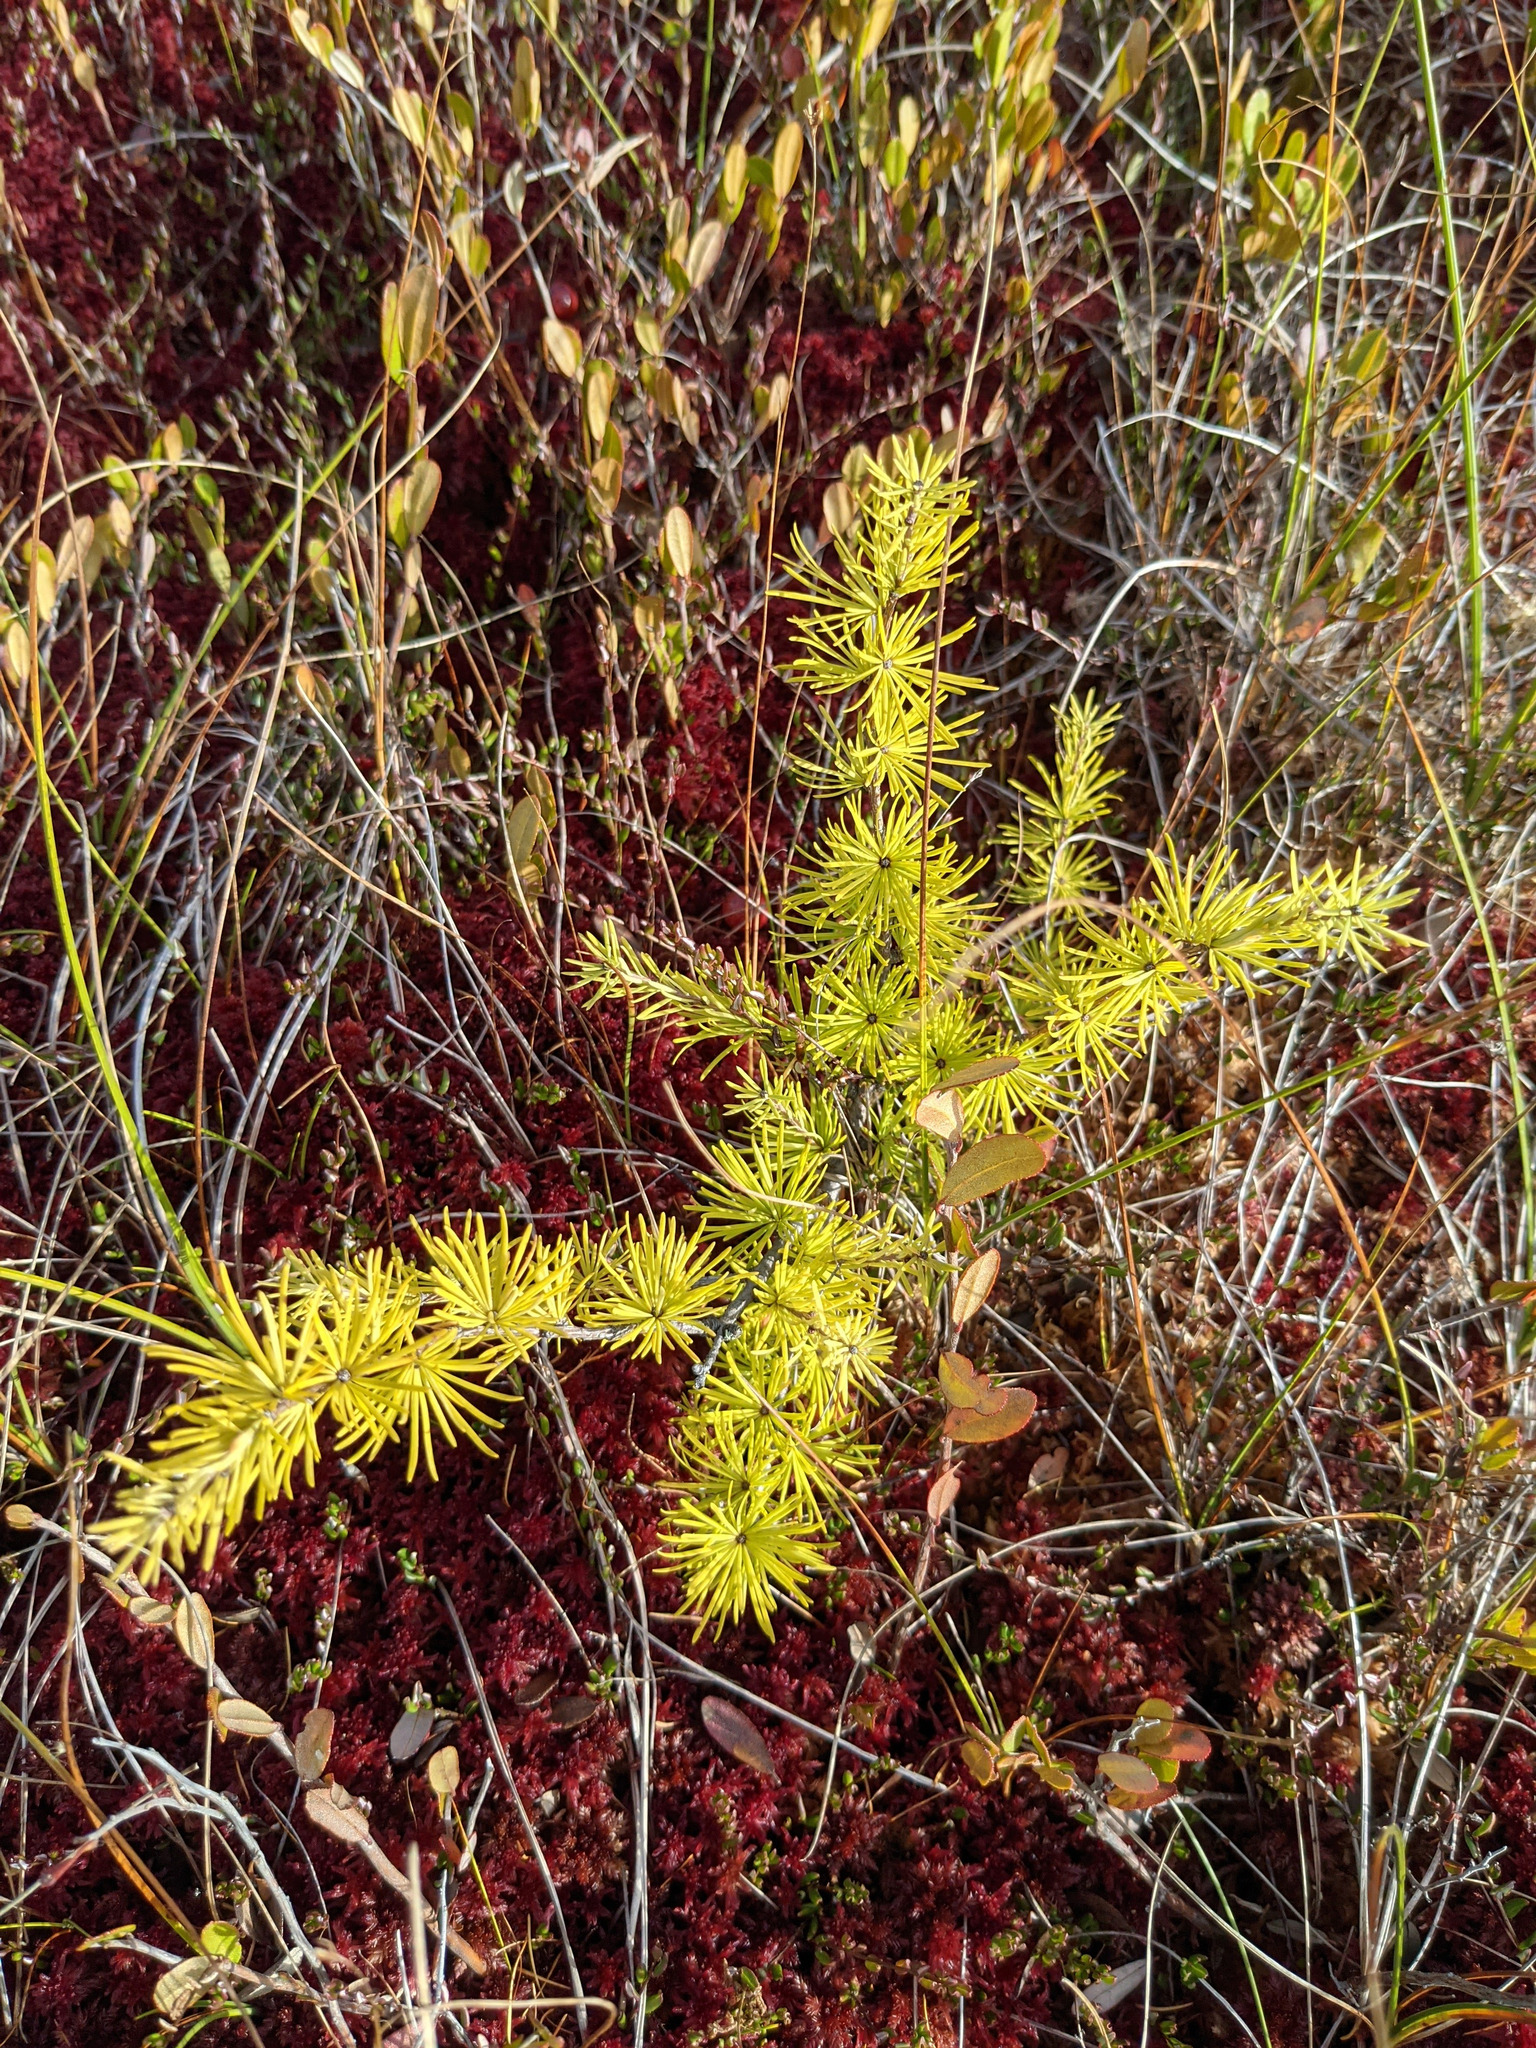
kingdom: Plantae
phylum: Tracheophyta
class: Pinopsida
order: Pinales
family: Pinaceae
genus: Larix
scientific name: Larix laricina
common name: American larch
